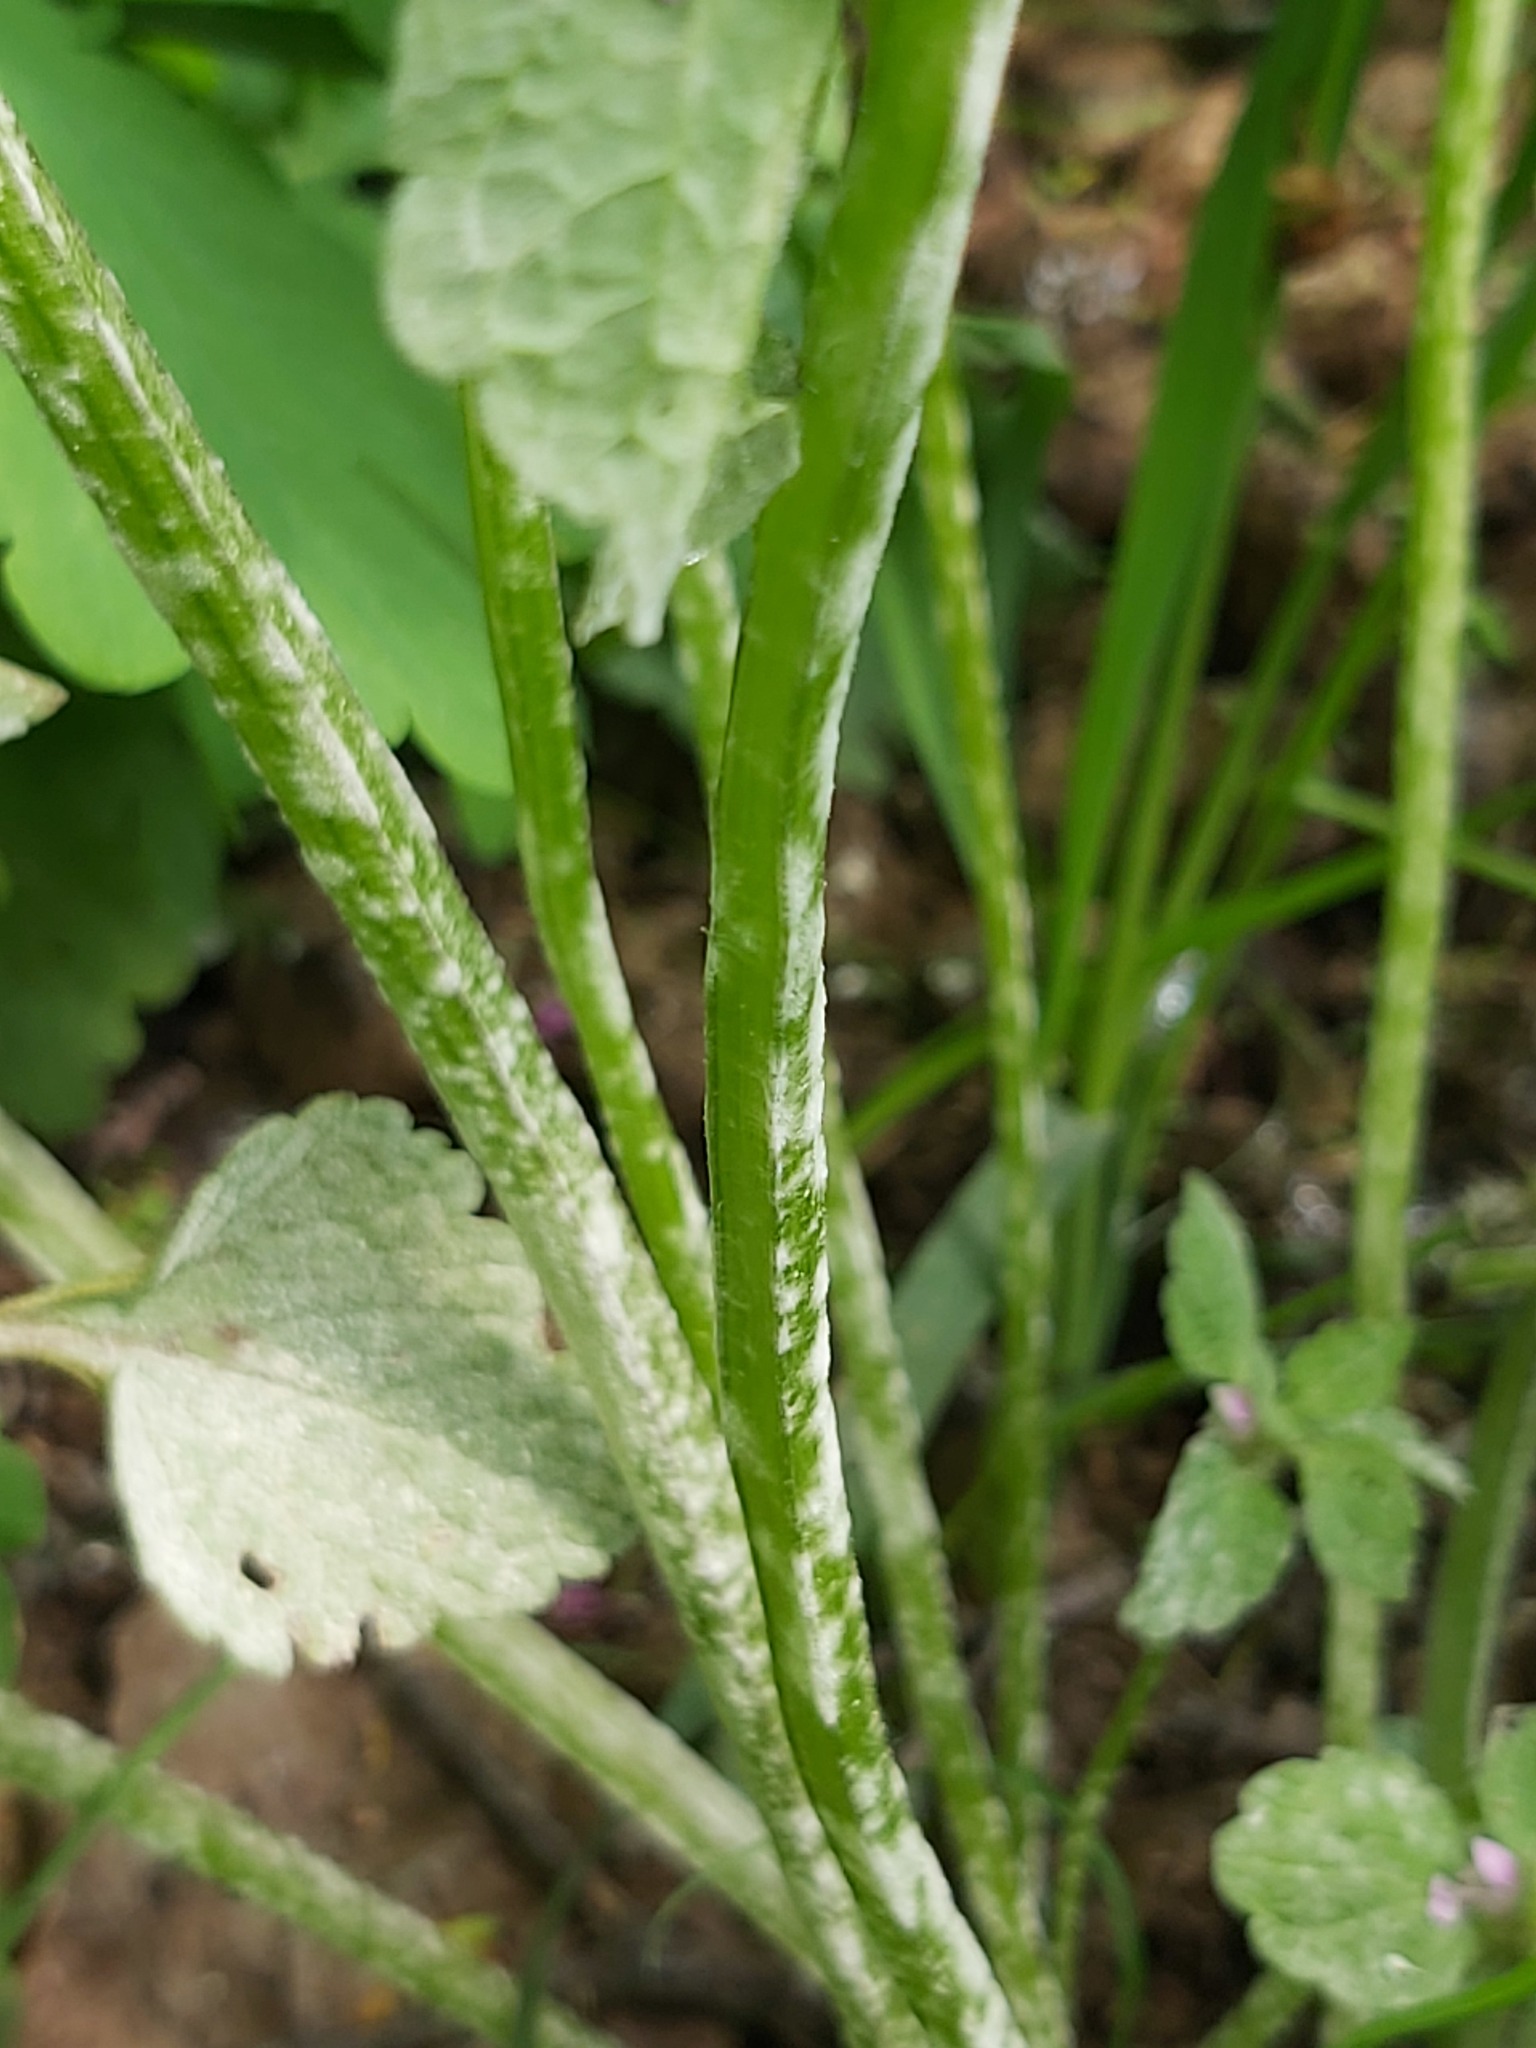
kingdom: Fungi
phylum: Ascomycota
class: Leotiomycetes
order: Helotiales
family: Erysiphaceae
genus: Neoerysiphe
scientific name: Neoerysiphe galeopsidis
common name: Mint mildew
